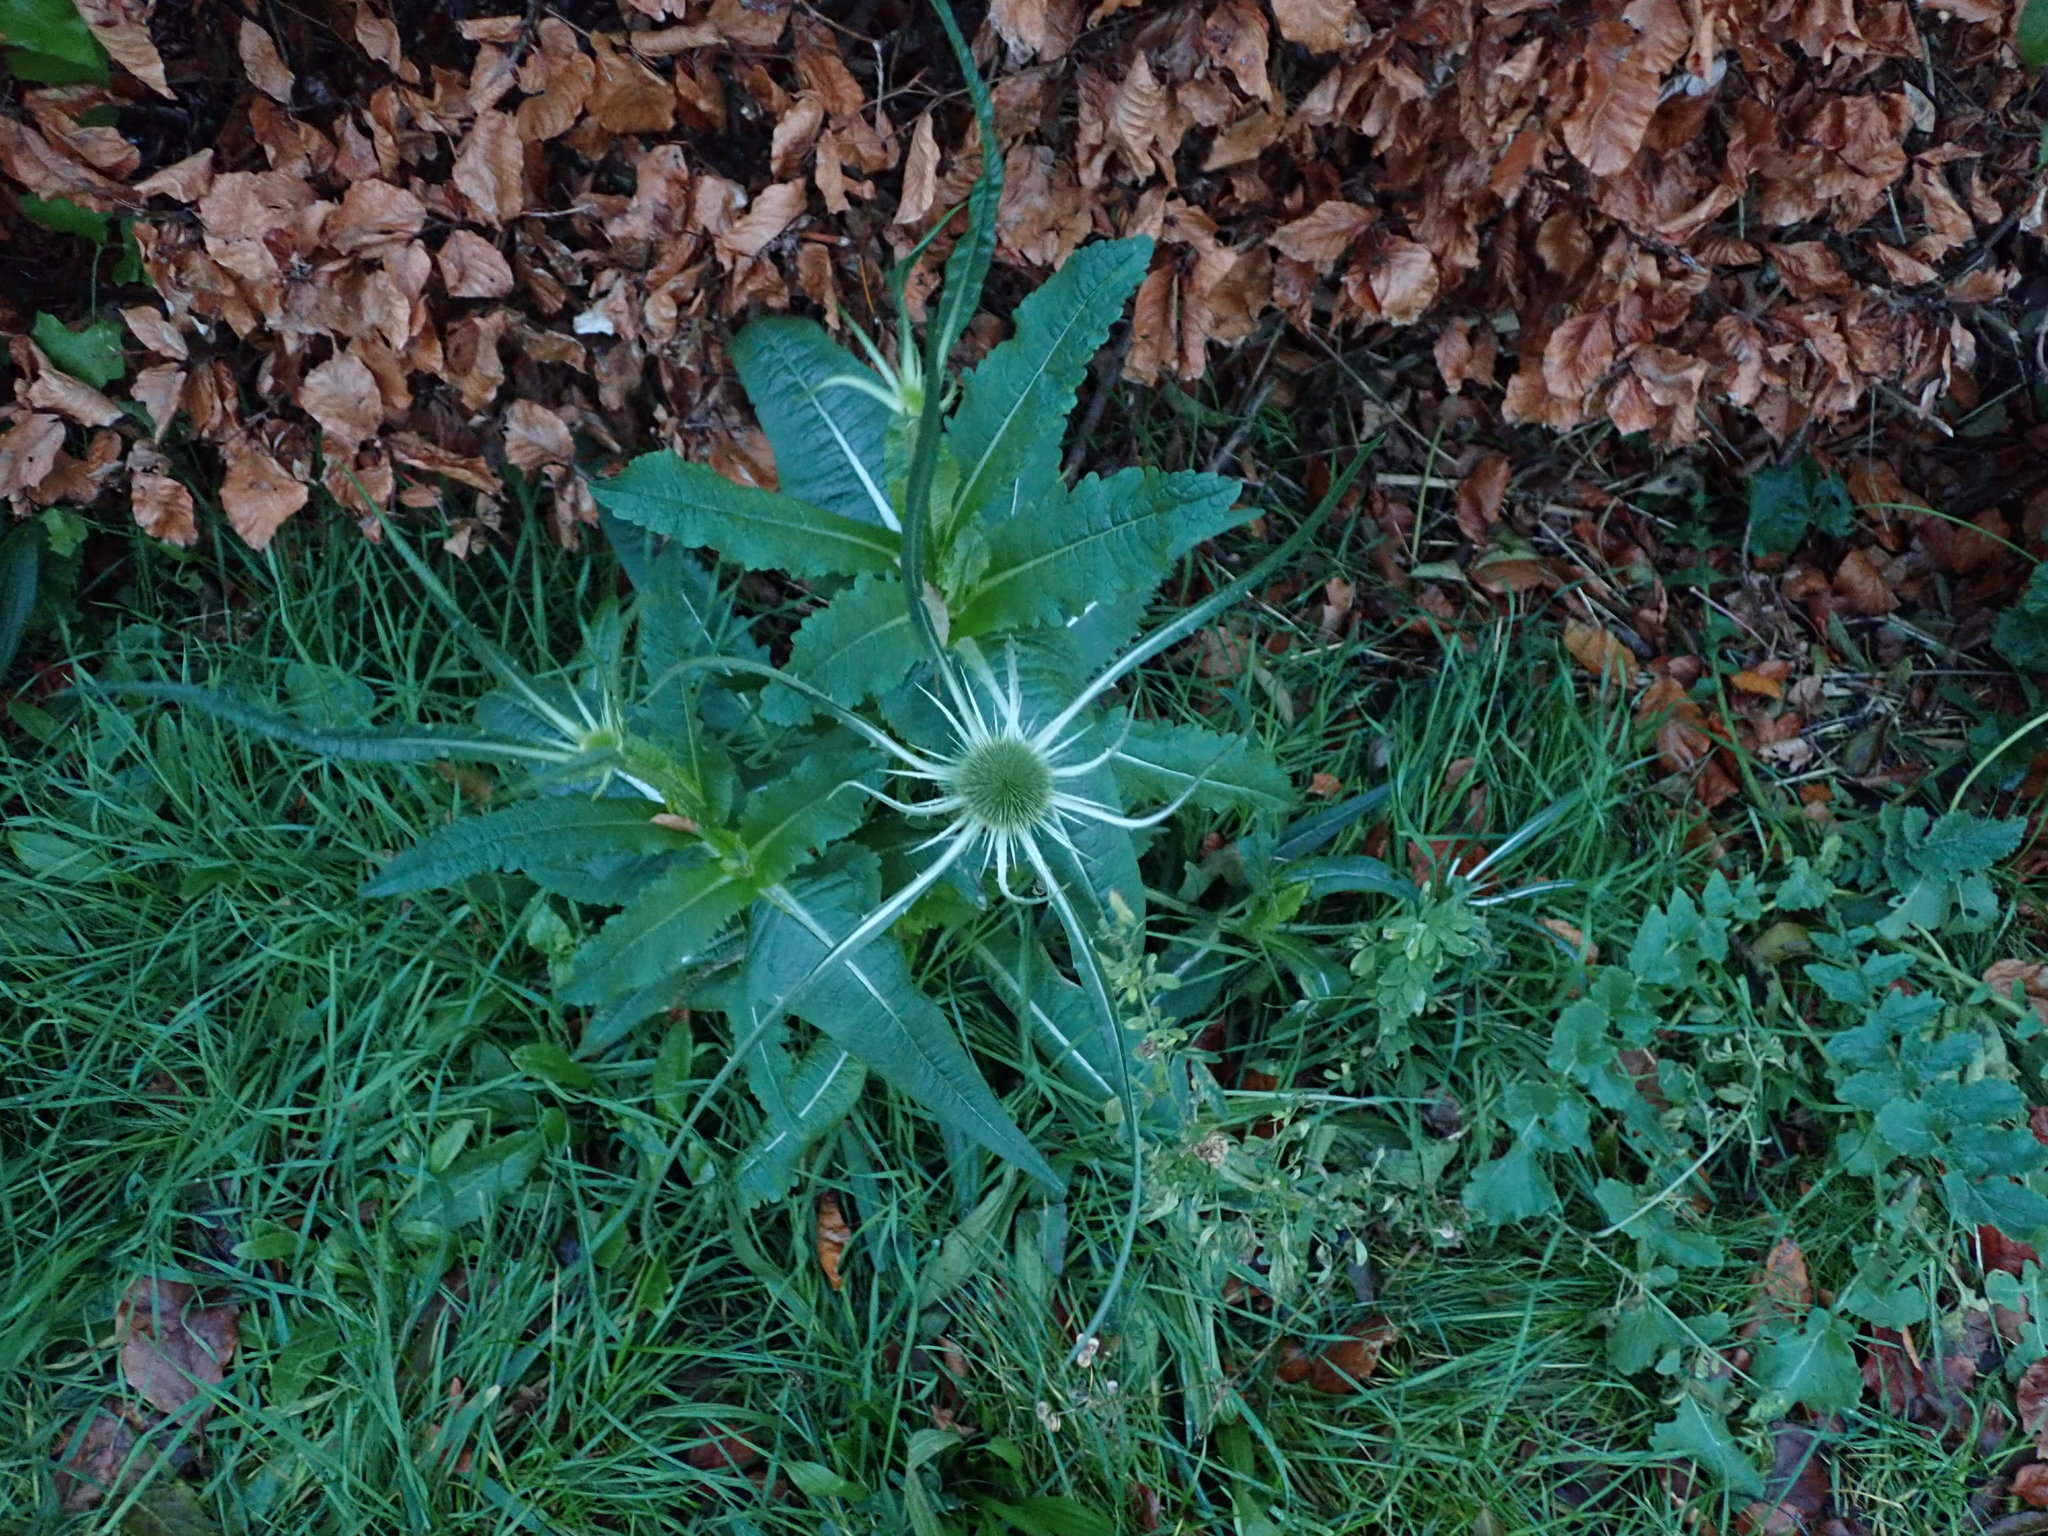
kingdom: Plantae
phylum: Tracheophyta
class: Magnoliopsida
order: Dipsacales
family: Caprifoliaceae
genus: Dipsacus
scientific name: Dipsacus fullonum
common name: Teasel
